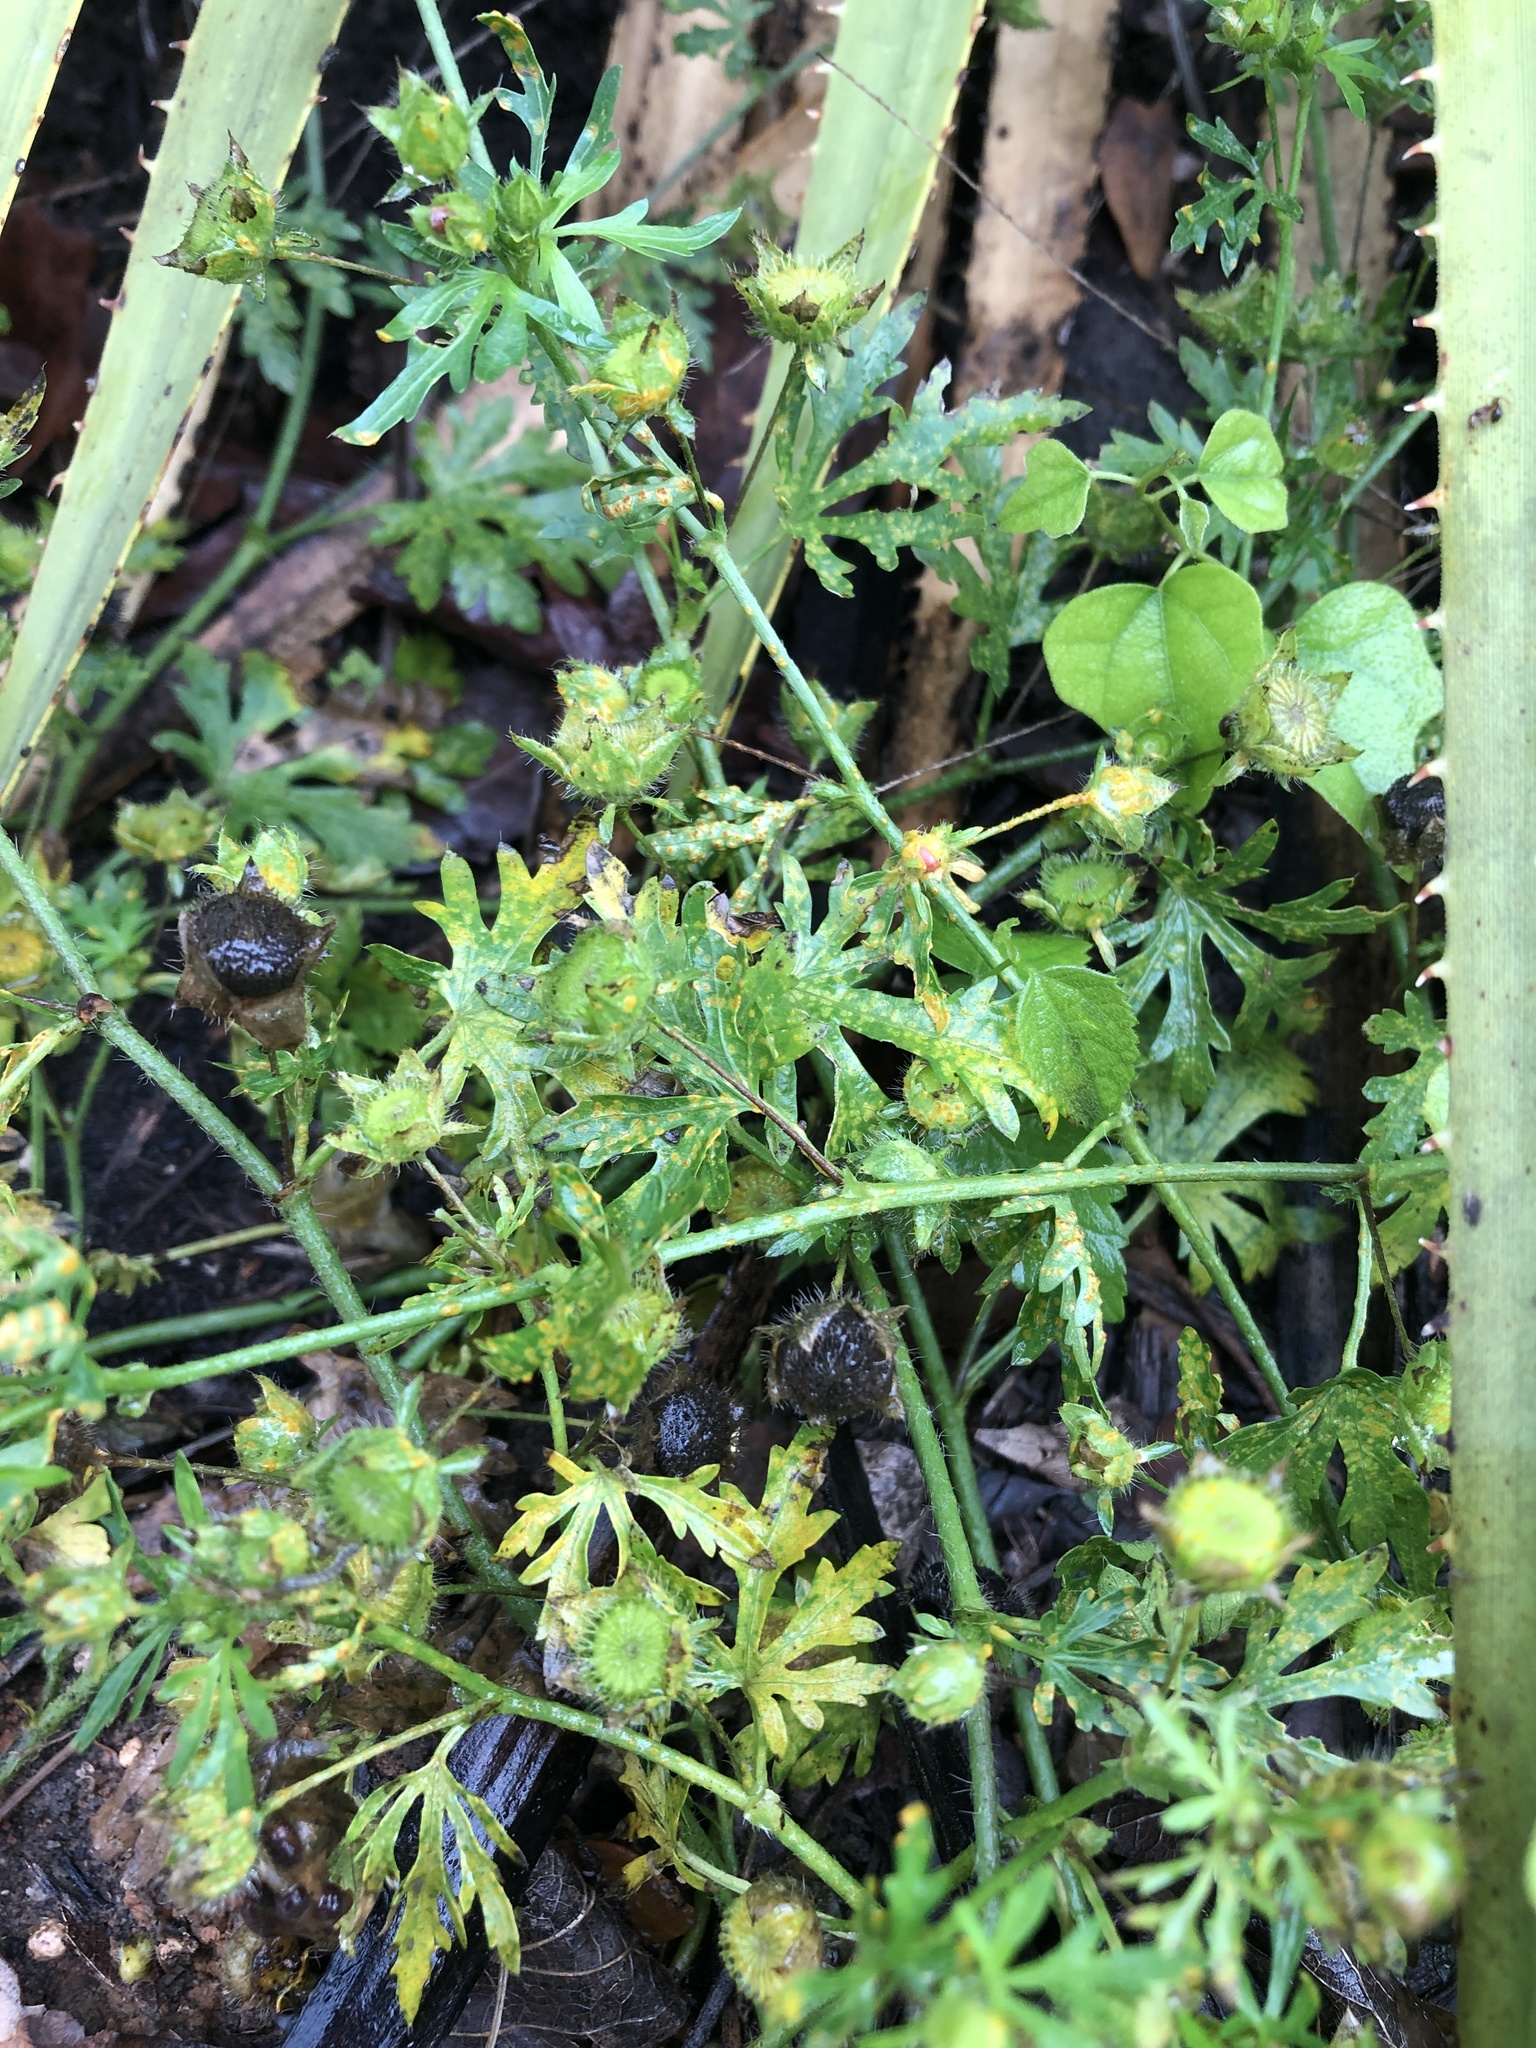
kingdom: Fungi
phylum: Basidiomycota
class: Pucciniomycetes
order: Pucciniales
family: Pucciniaceae
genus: Puccinia
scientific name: Puccinia modiolae
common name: Rust of bristlemallow
